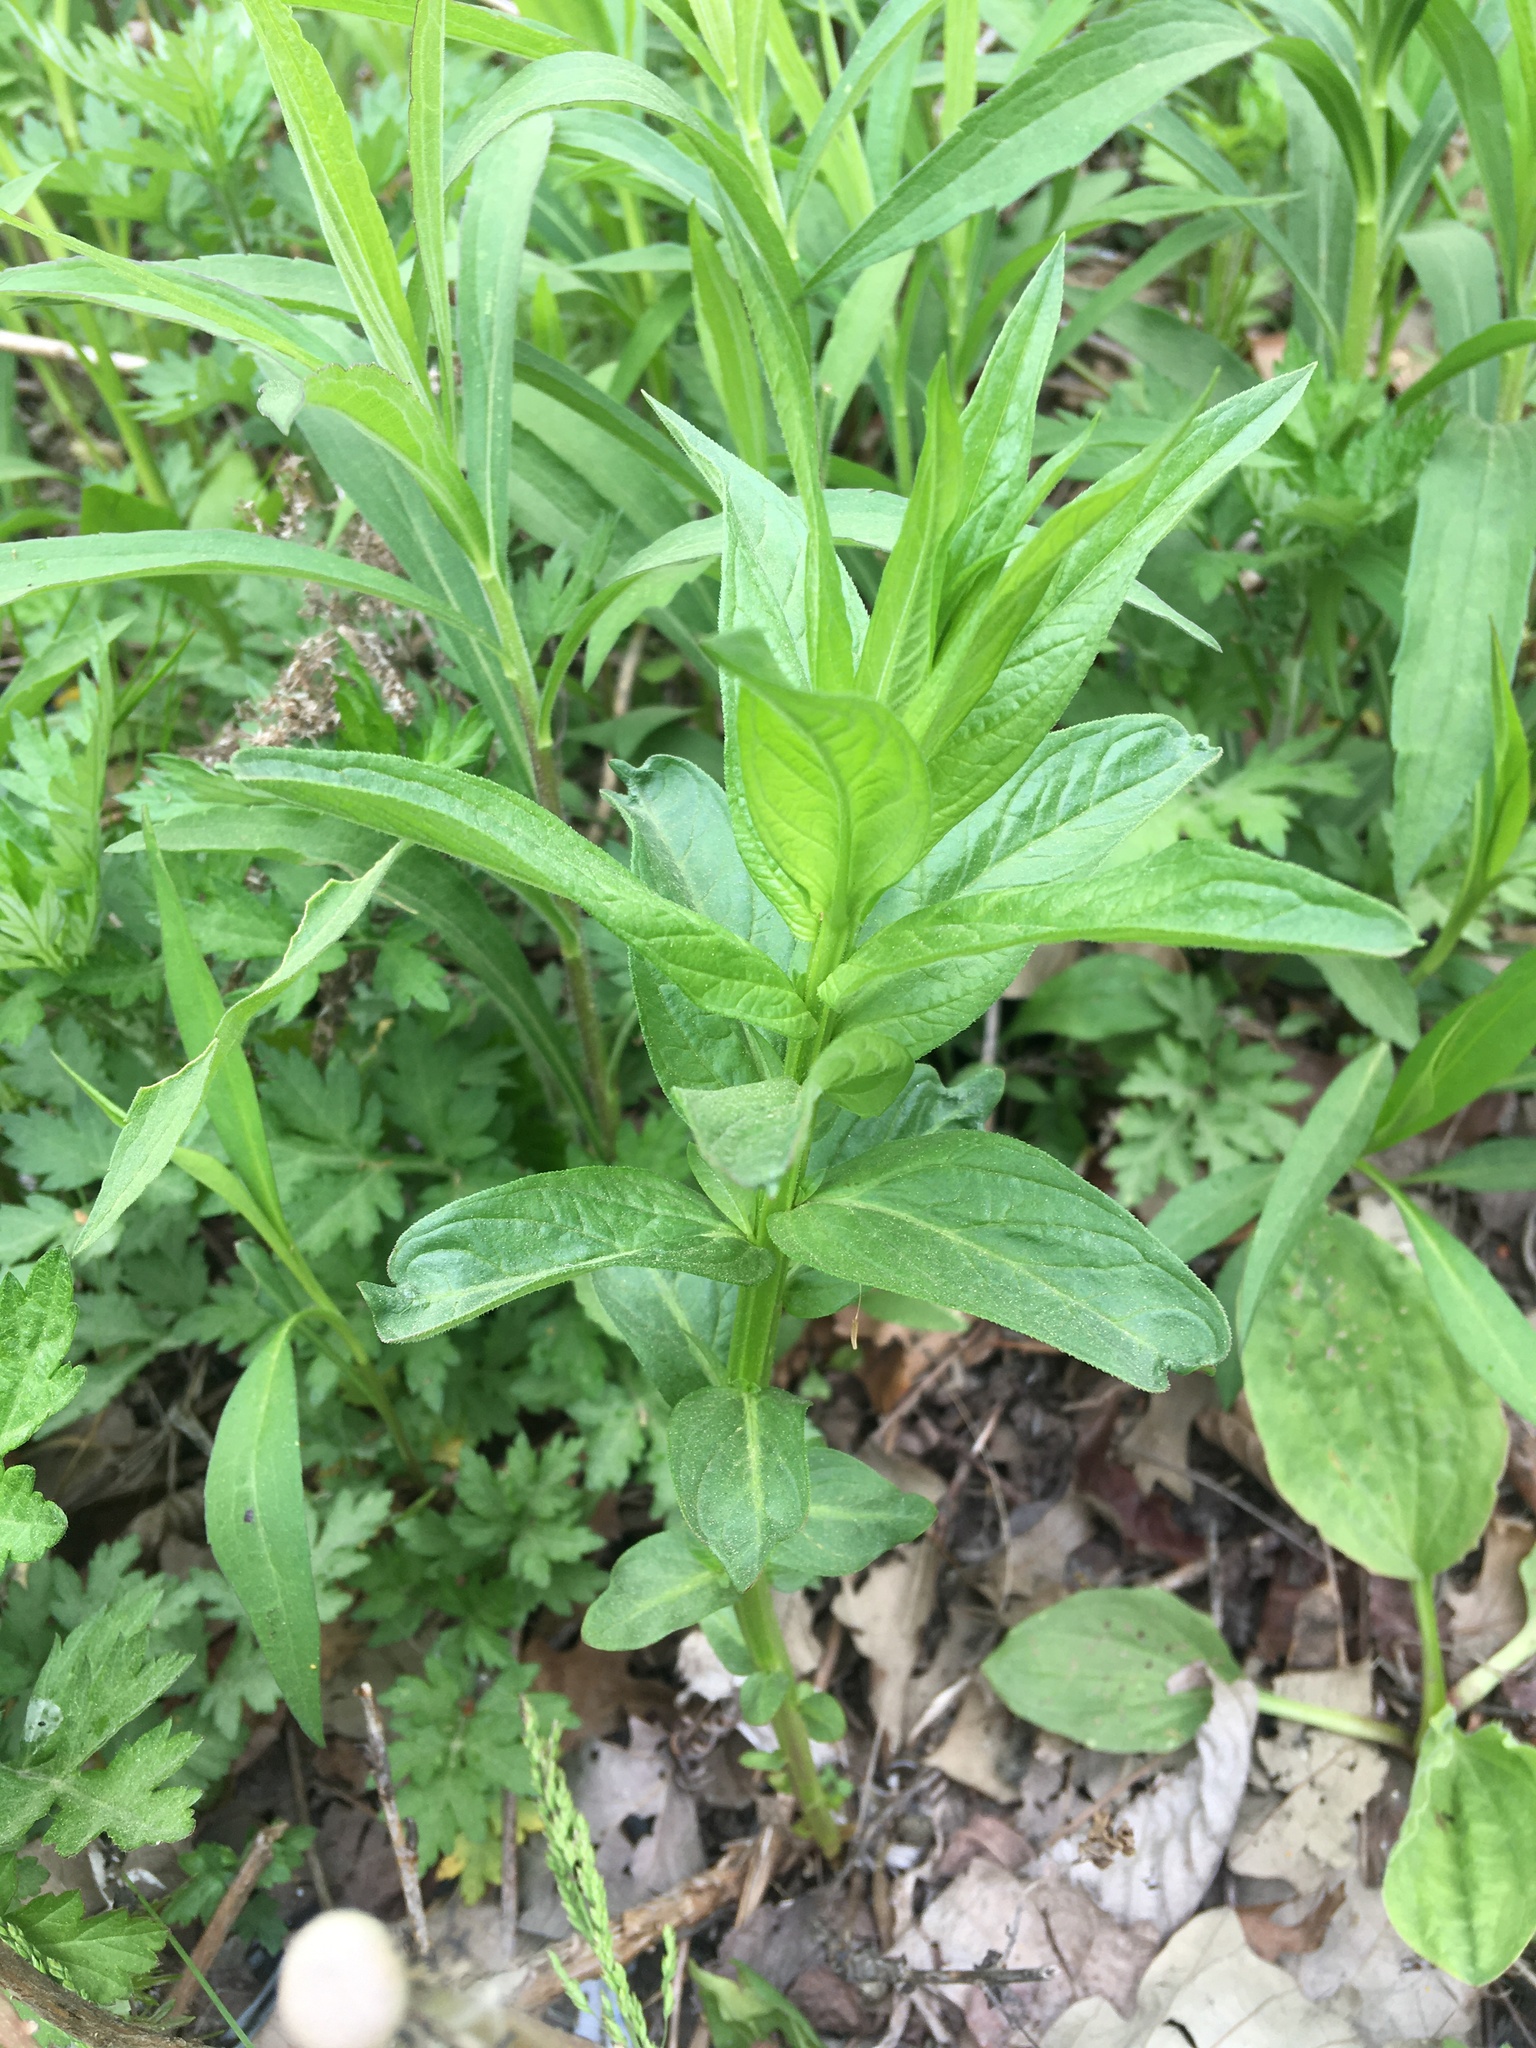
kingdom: Plantae
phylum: Tracheophyta
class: Magnoliopsida
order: Myrtales
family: Lythraceae
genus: Lythrum
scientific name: Lythrum salicaria
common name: Purple loosestrife
